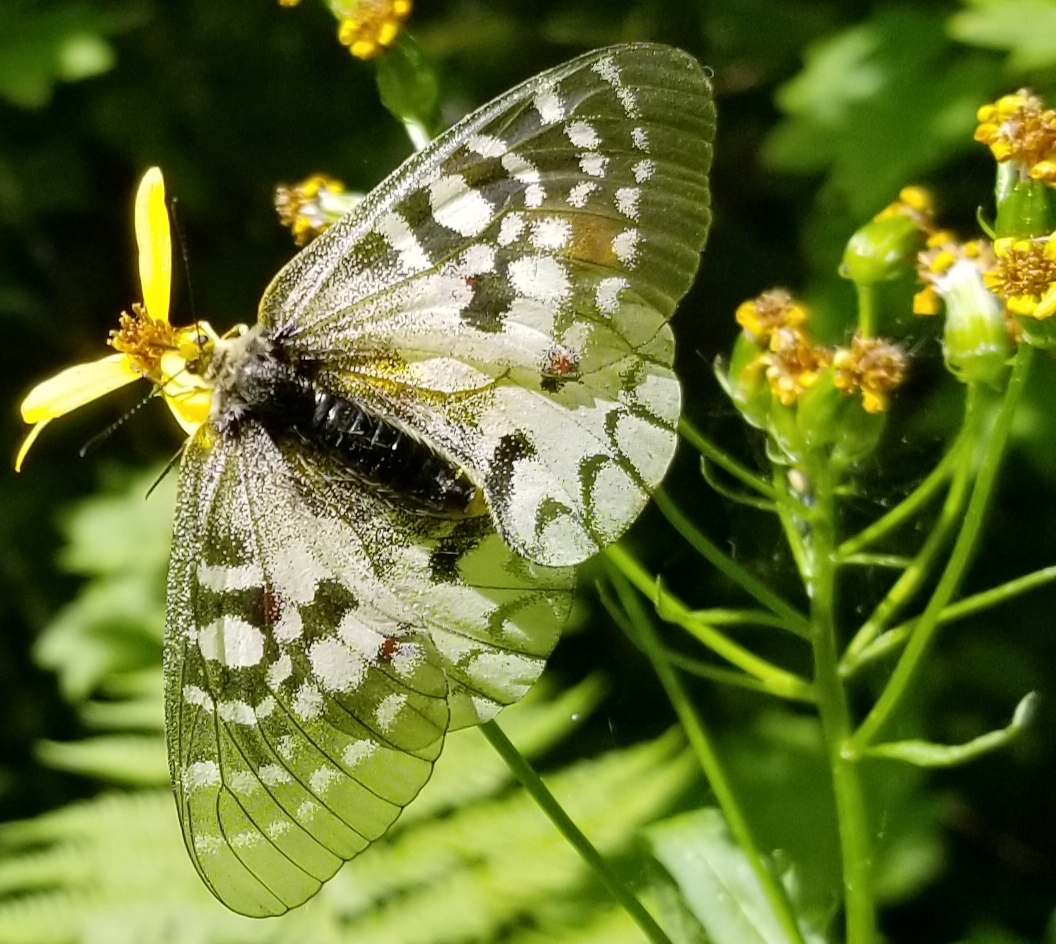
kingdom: Animalia
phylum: Arthropoda
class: Insecta
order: Lepidoptera
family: Papilionidae
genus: Parnassius
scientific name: Parnassius clodius
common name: American apollo
